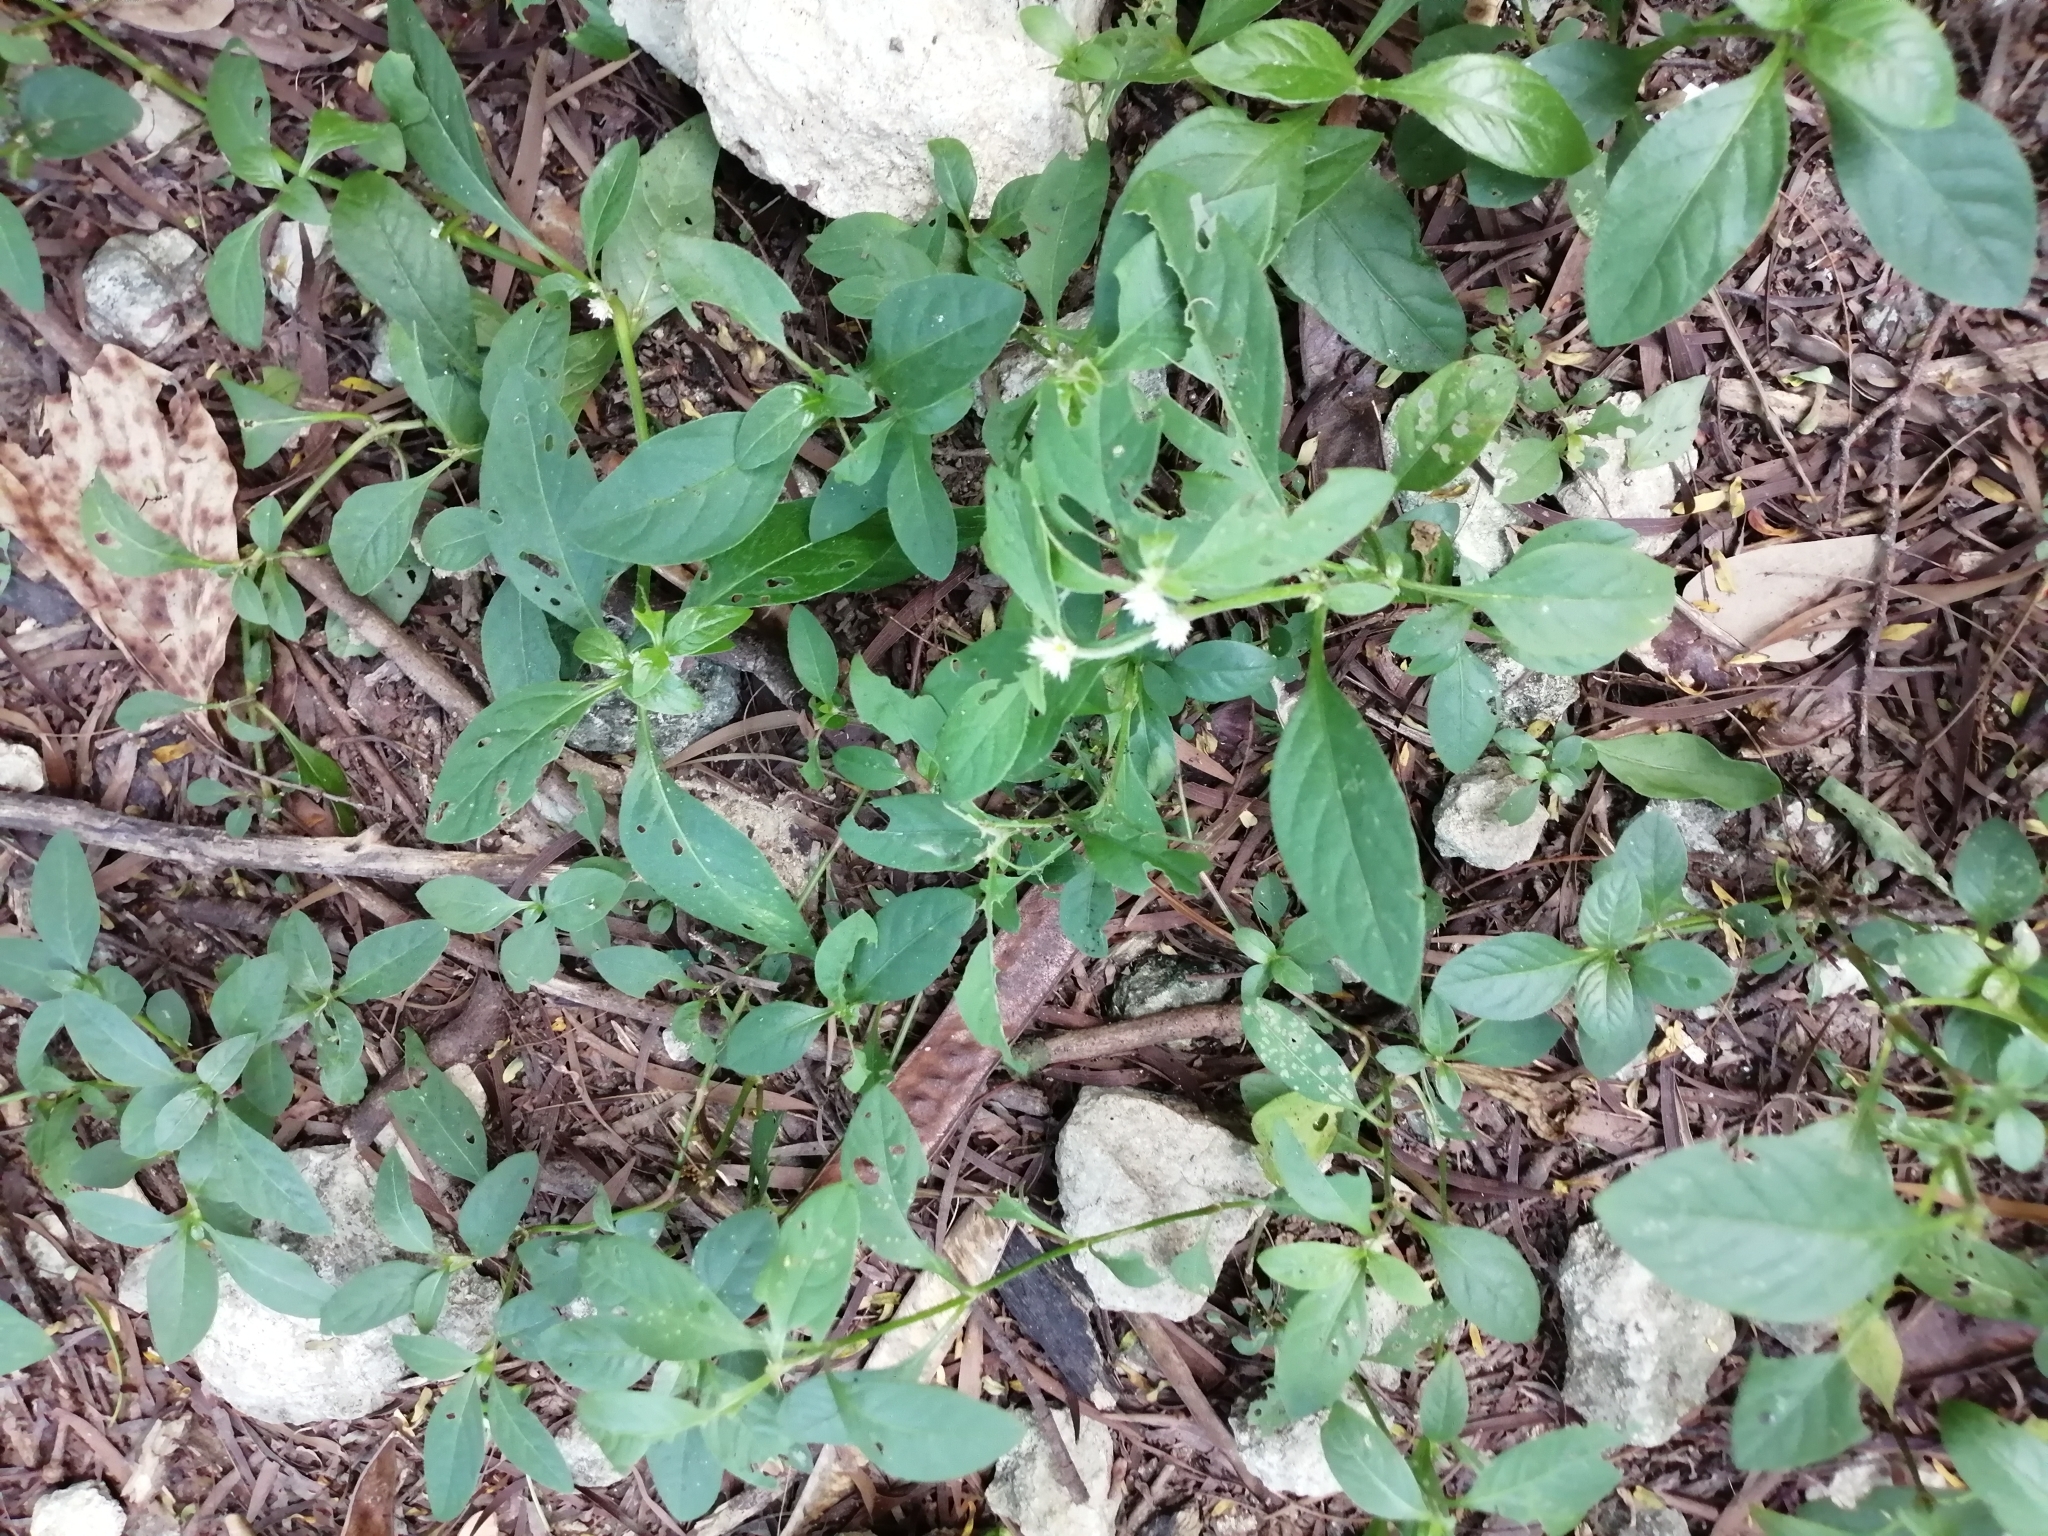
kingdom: Plantae
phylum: Tracheophyta
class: Magnoliopsida
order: Caryophyllales
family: Amaranthaceae
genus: Alternanthera
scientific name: Alternanthera bettzickiana
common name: Calico-plant
